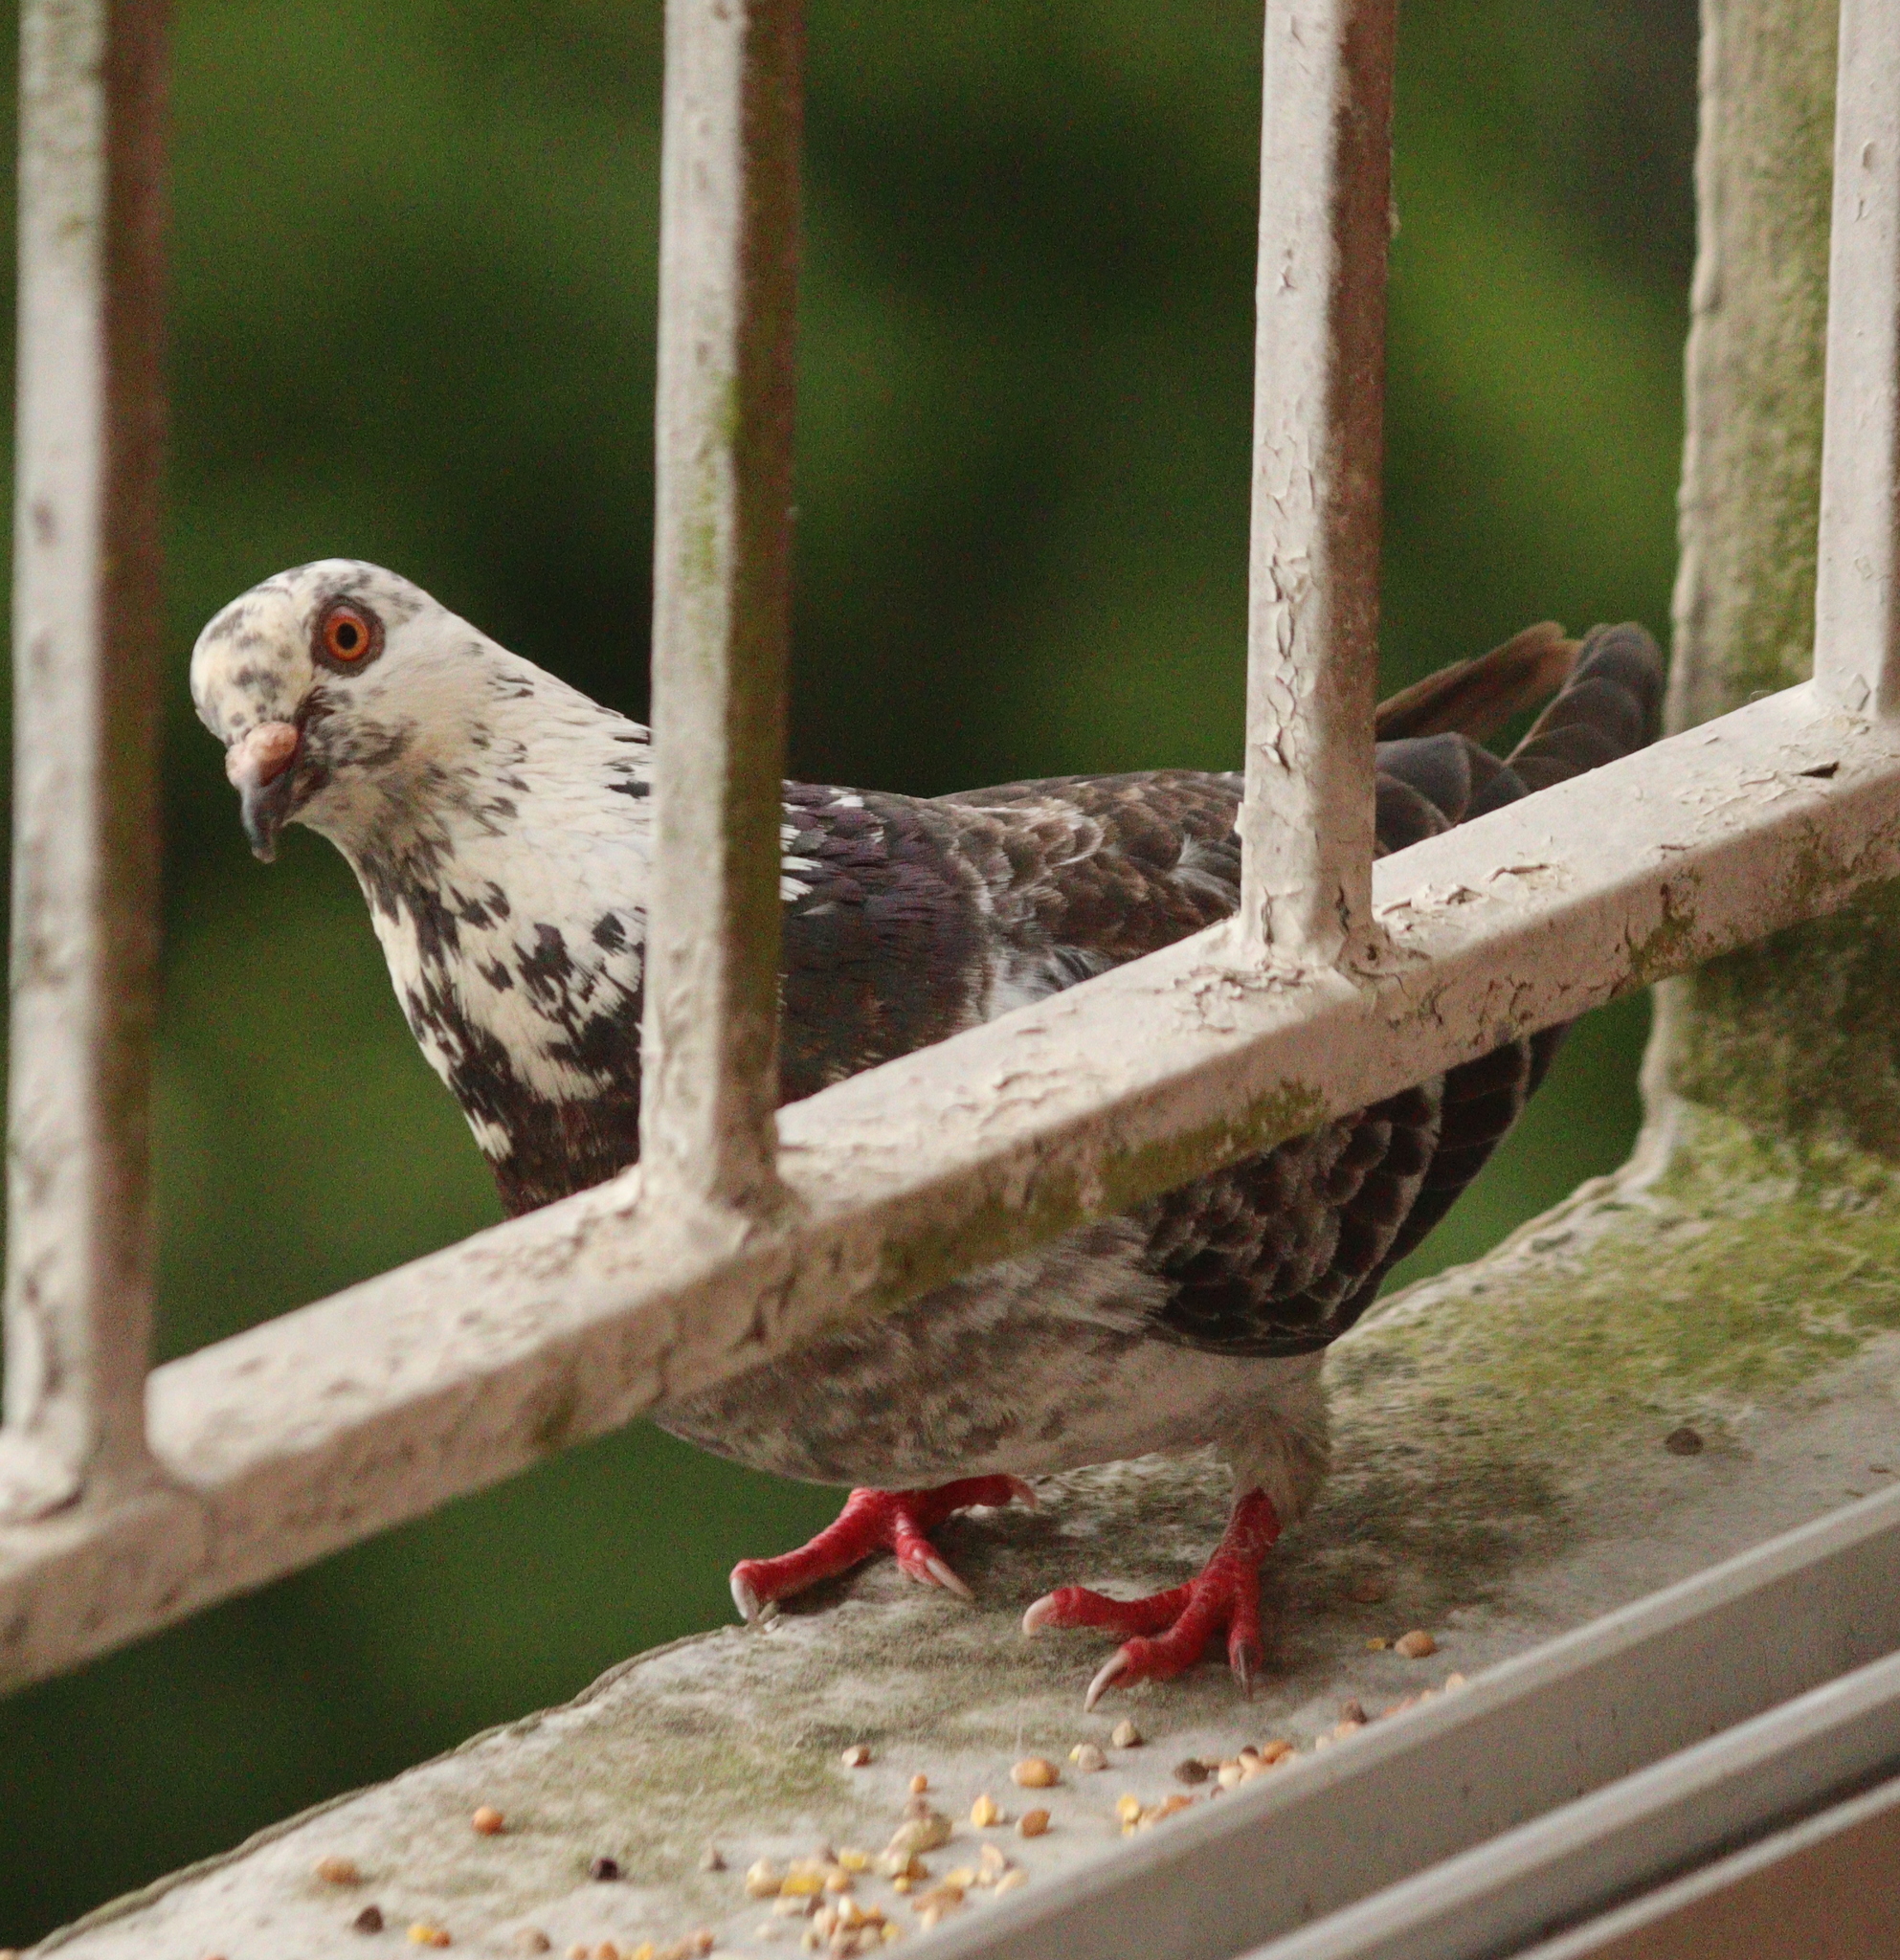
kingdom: Animalia
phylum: Chordata
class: Aves
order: Columbiformes
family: Columbidae
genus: Columba
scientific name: Columba livia
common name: Rock pigeon
